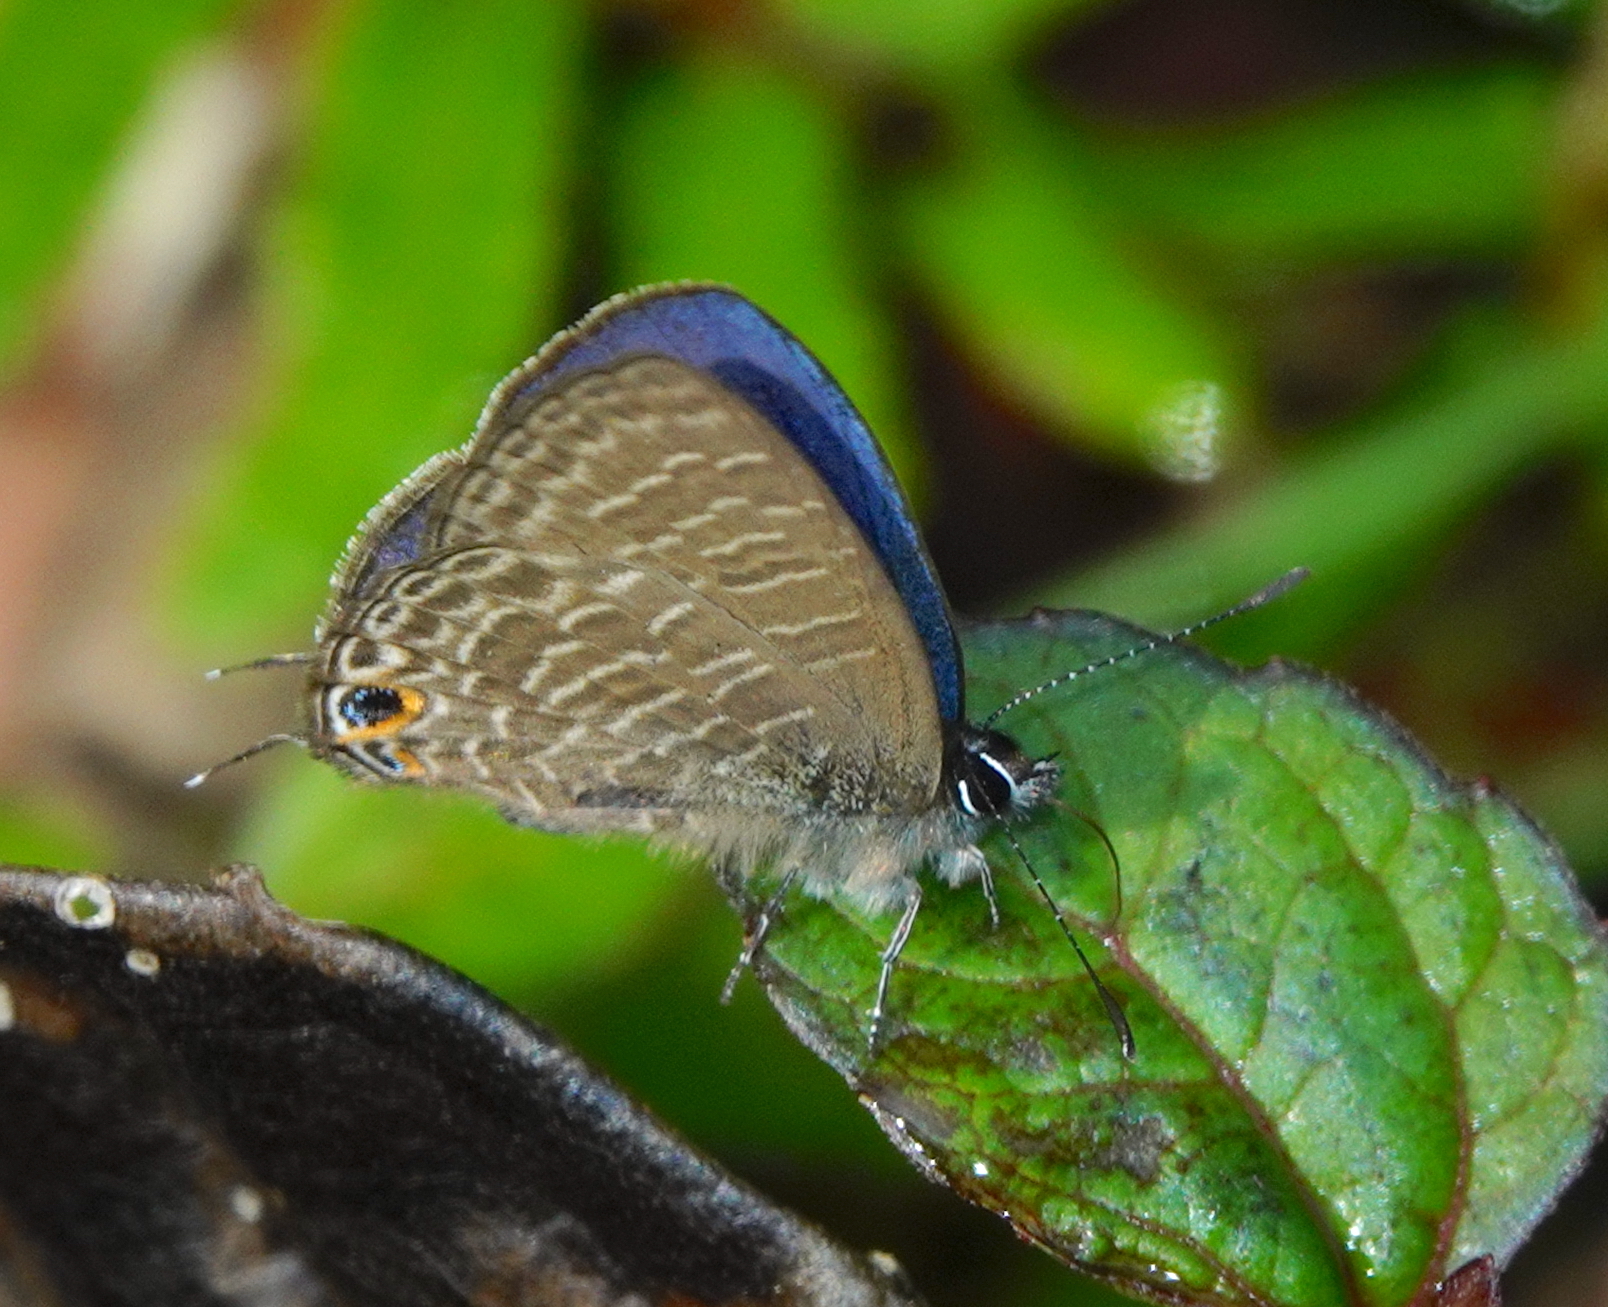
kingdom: Animalia
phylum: Arthropoda
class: Insecta
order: Lepidoptera
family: Lycaenidae
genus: Nacaduba
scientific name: Nacaduba tristis
